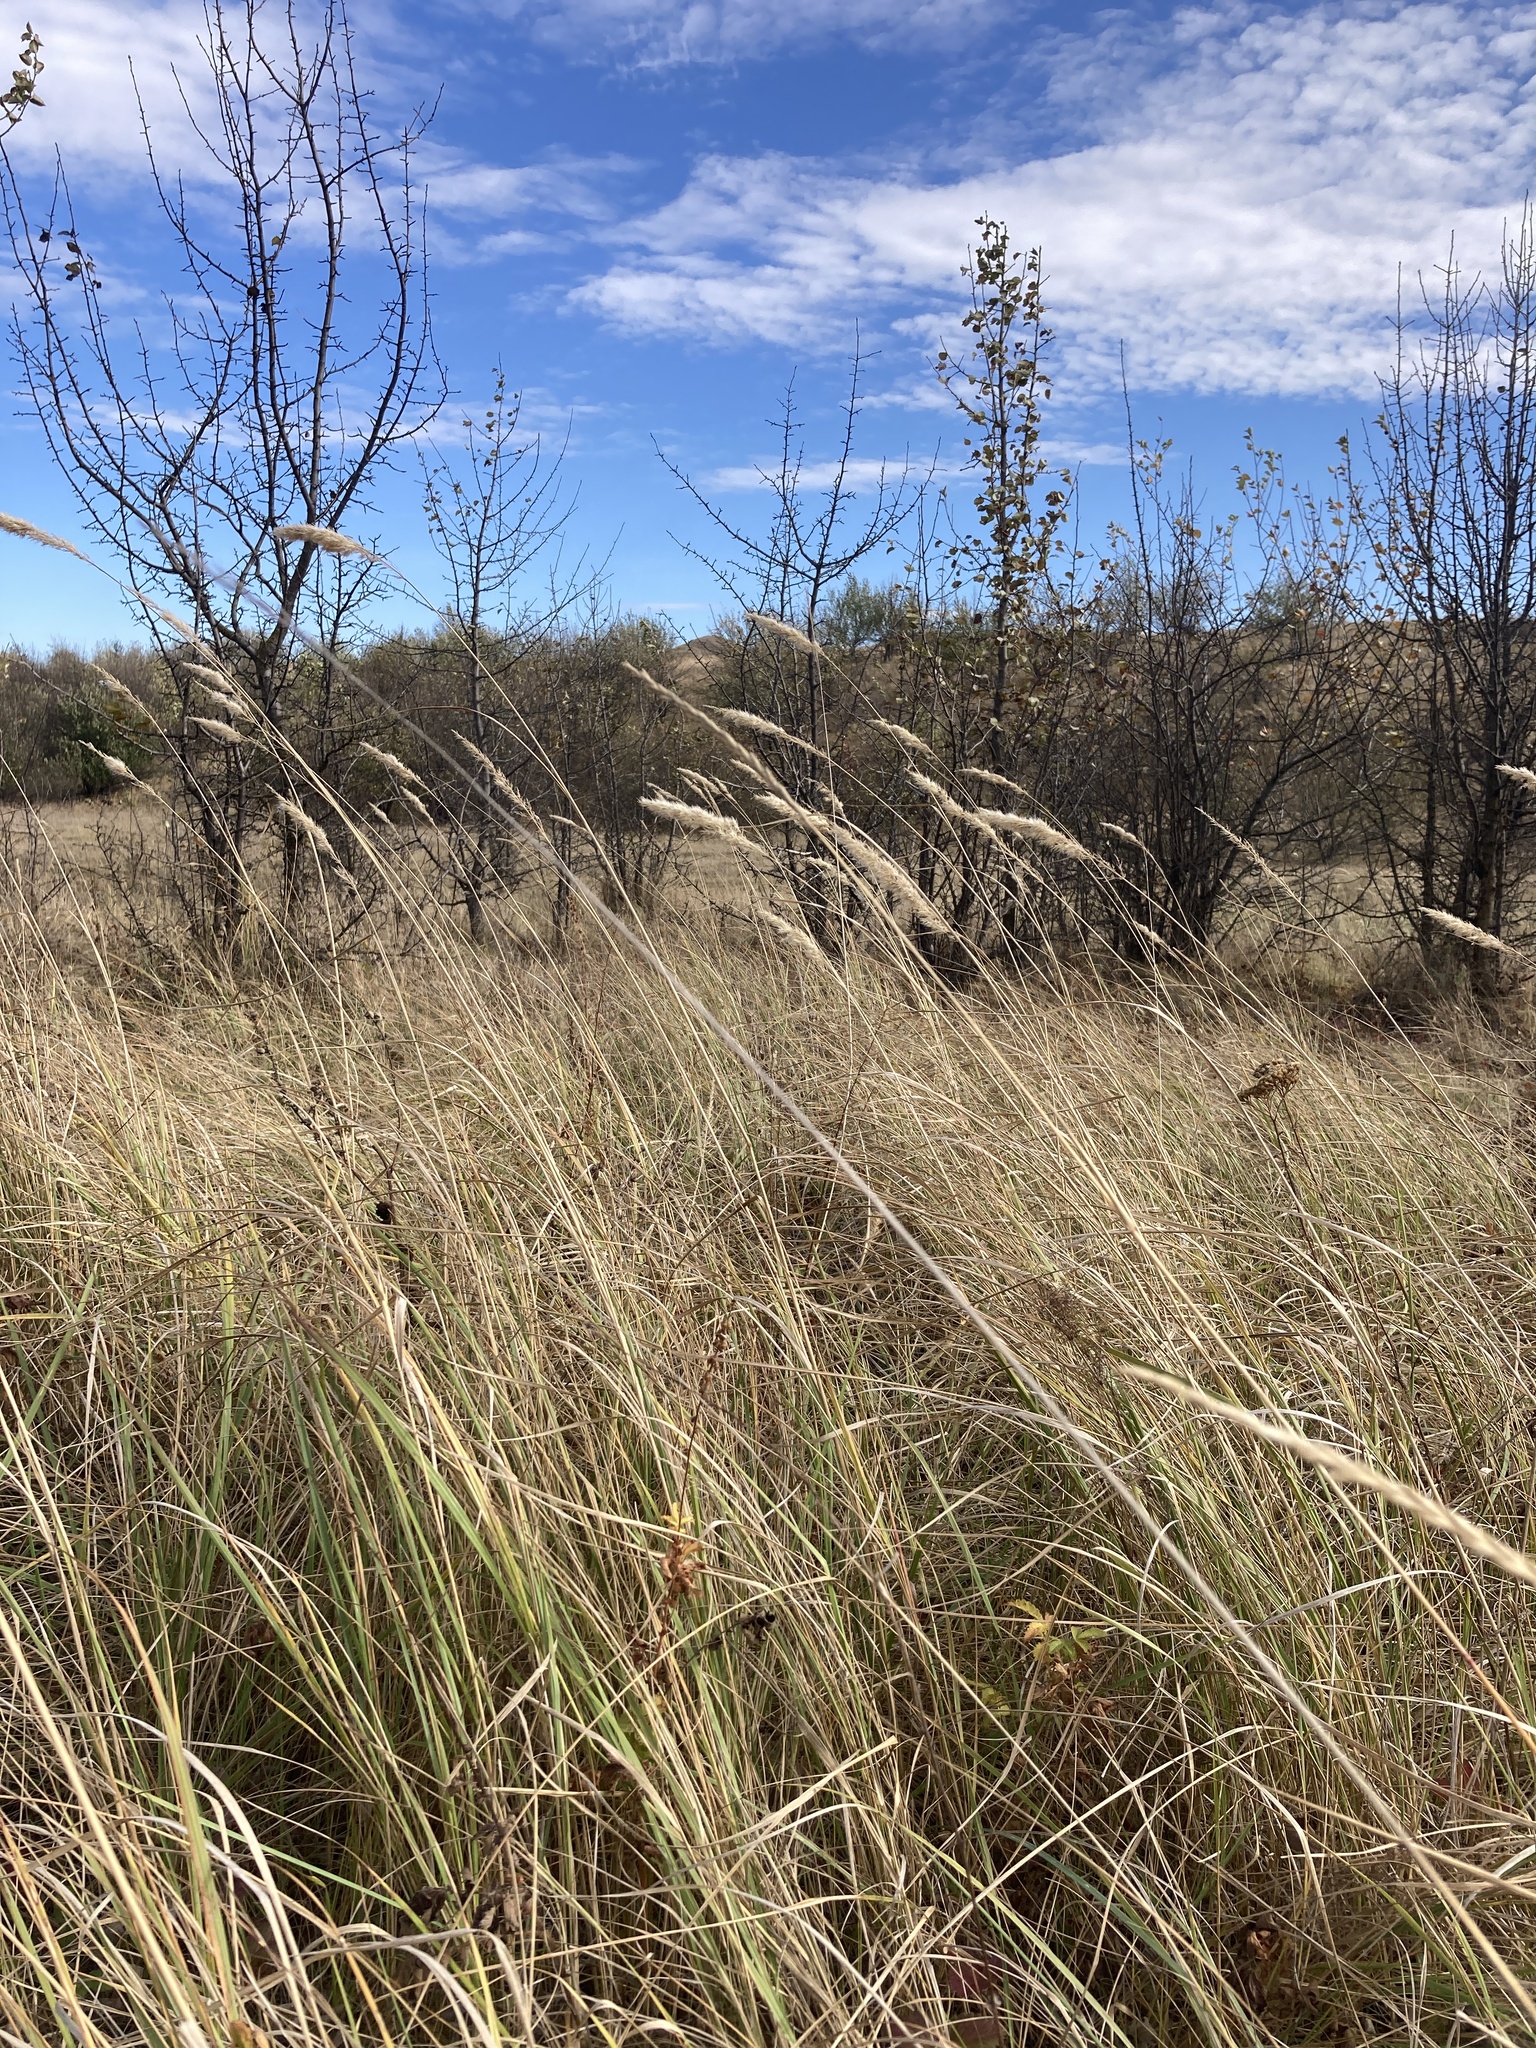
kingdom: Plantae
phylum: Tracheophyta
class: Liliopsida
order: Poales
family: Poaceae
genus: Calamagrostis
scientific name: Calamagrostis epigejos
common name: Wood small-reed
